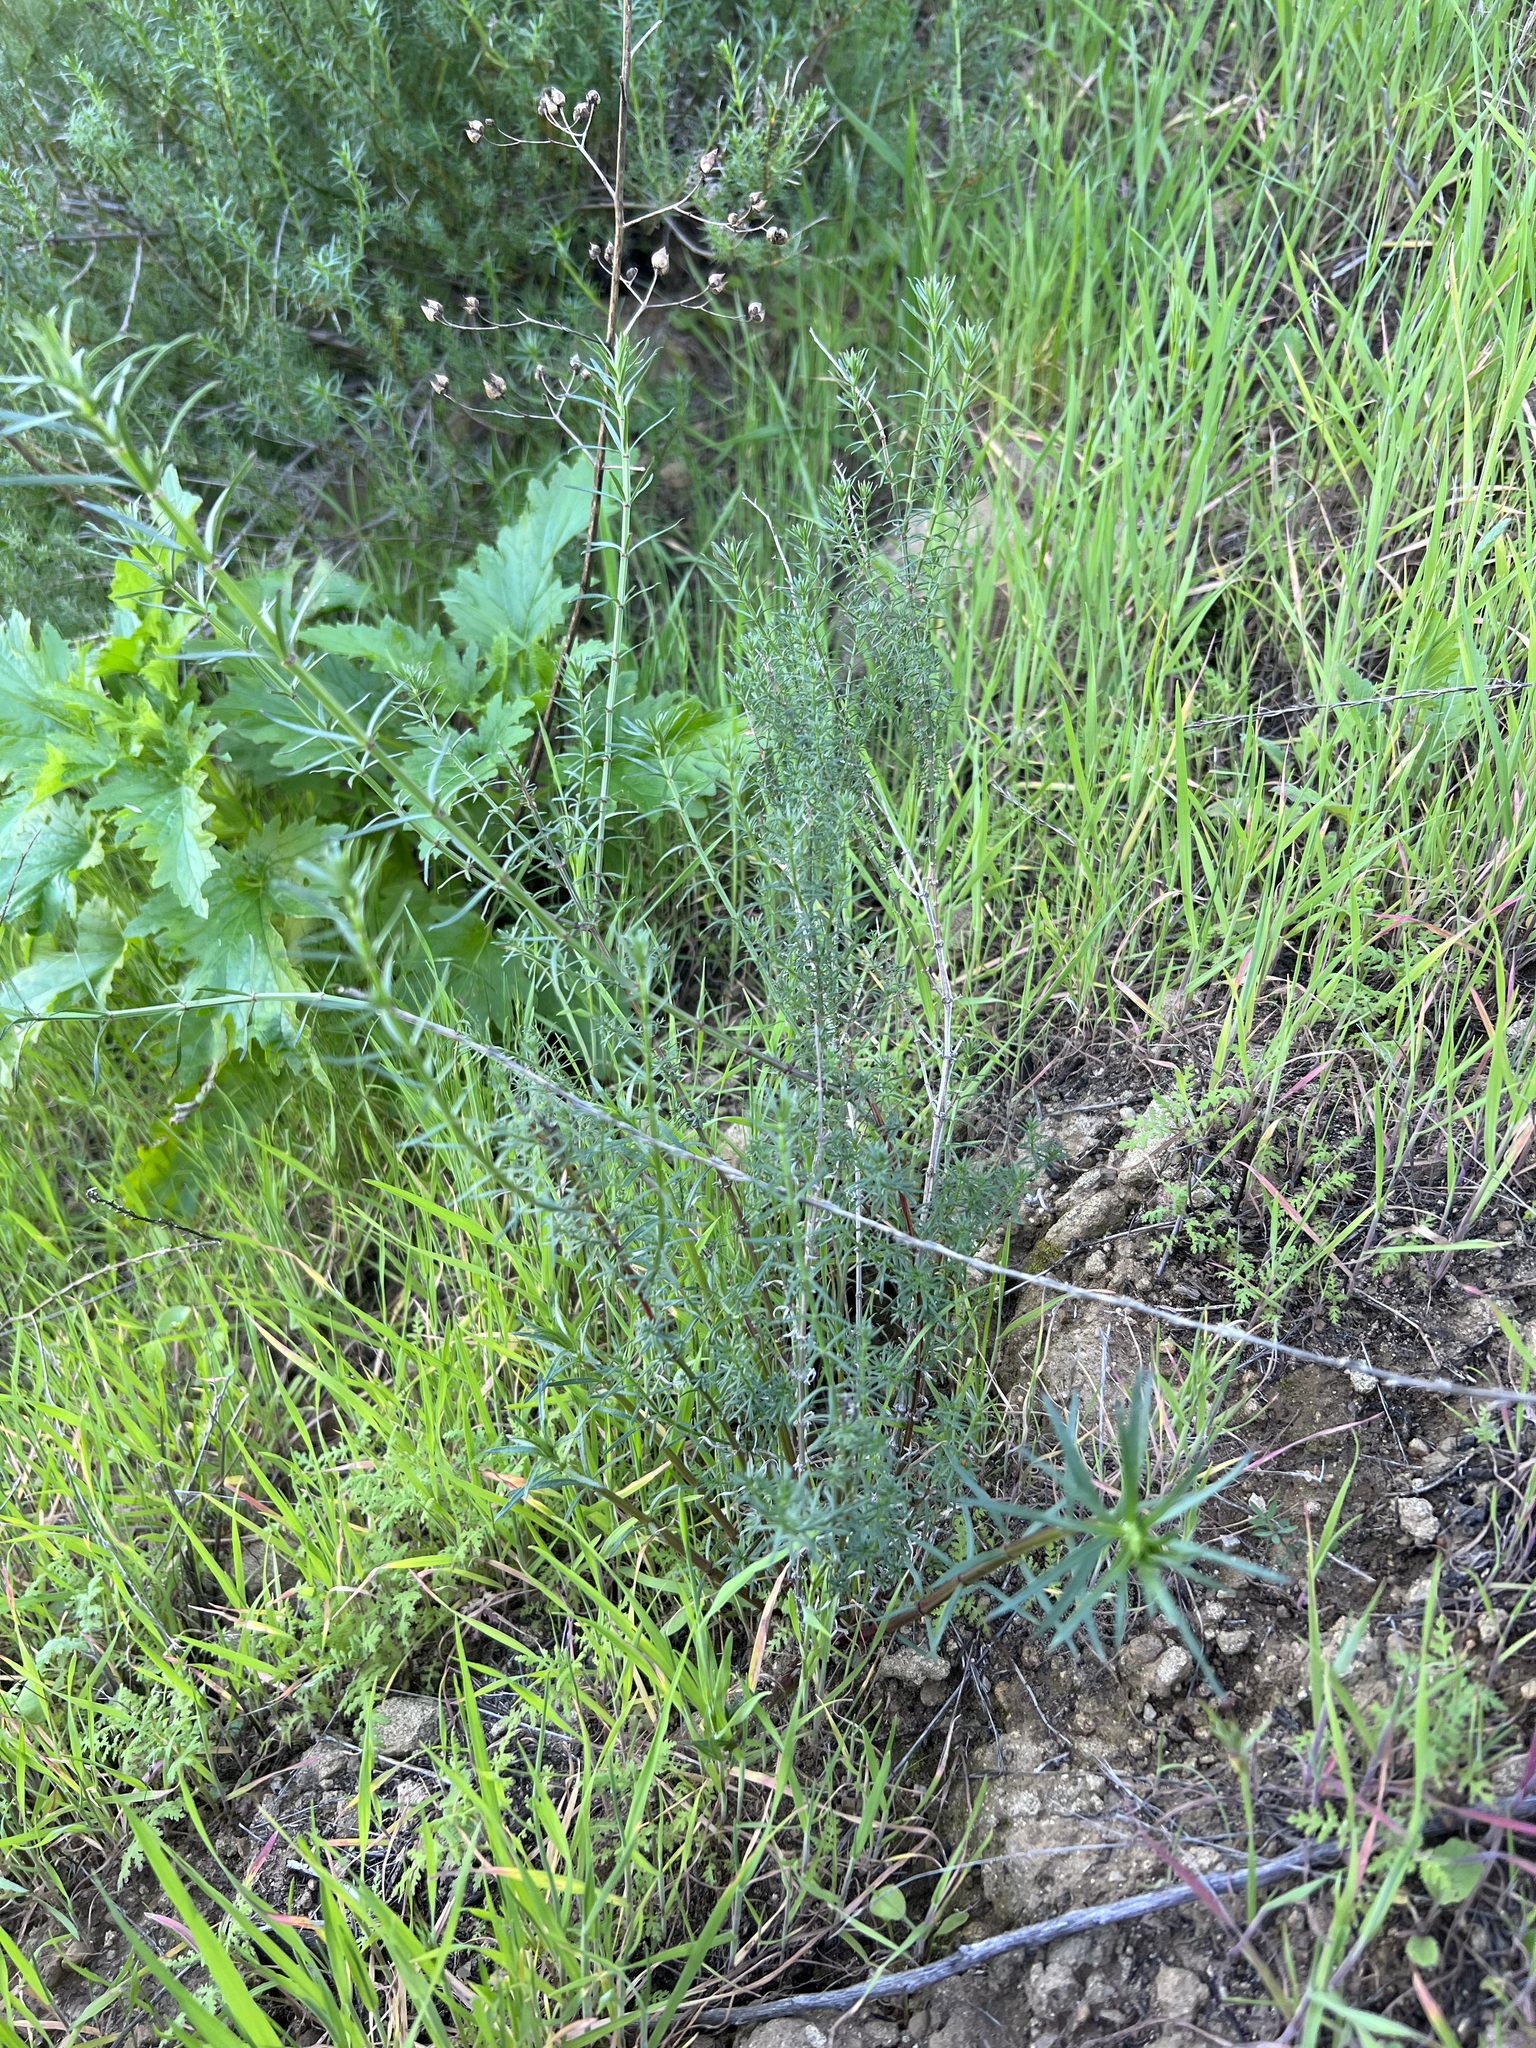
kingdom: Plantae
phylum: Tracheophyta
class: Magnoliopsida
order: Gentianales
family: Rubiaceae
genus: Galium
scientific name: Galium angustifolium
